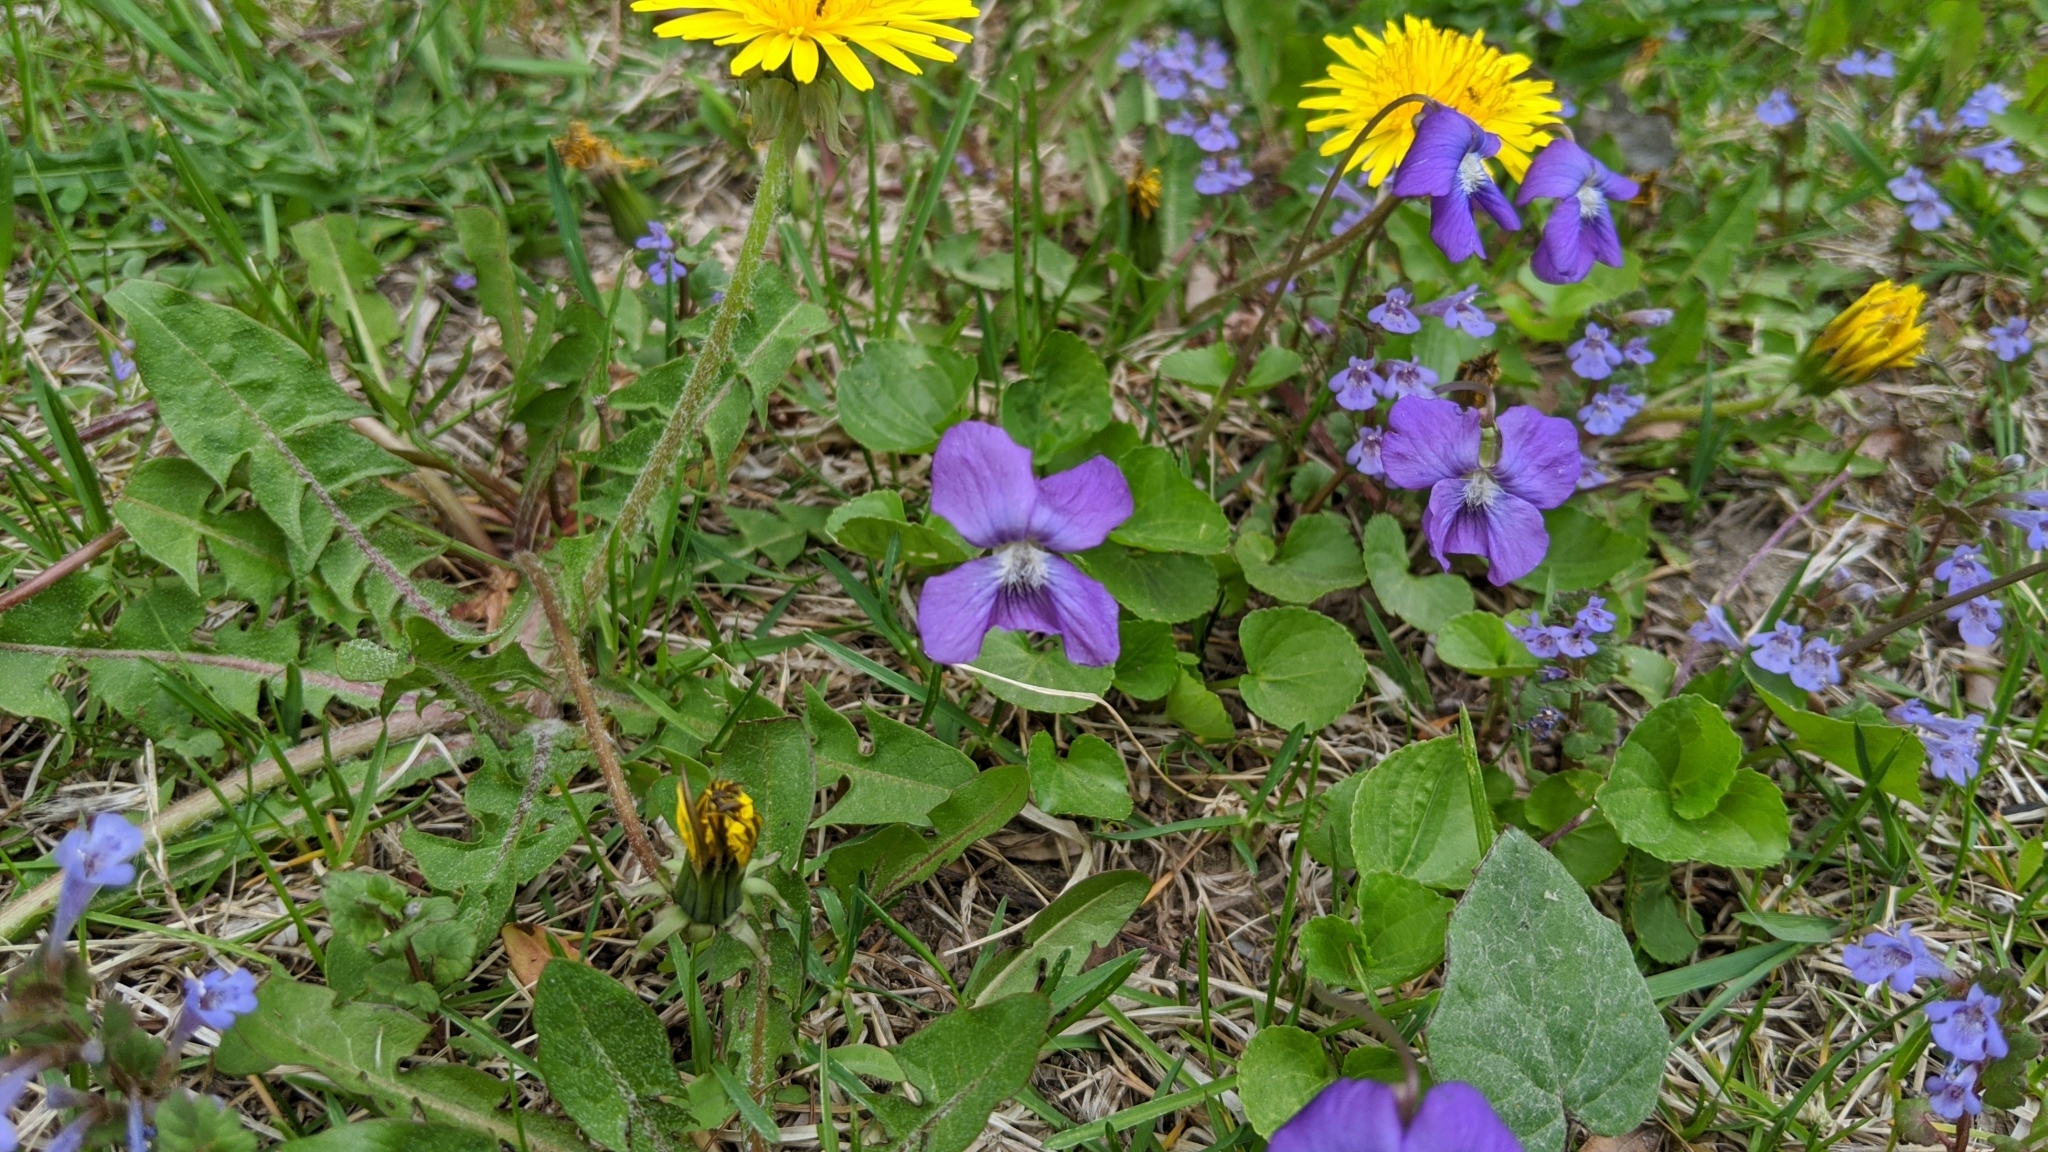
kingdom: Plantae
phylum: Tracheophyta
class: Magnoliopsida
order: Malpighiales
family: Violaceae
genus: Viola
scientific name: Viola sororia
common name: Dooryard violet
